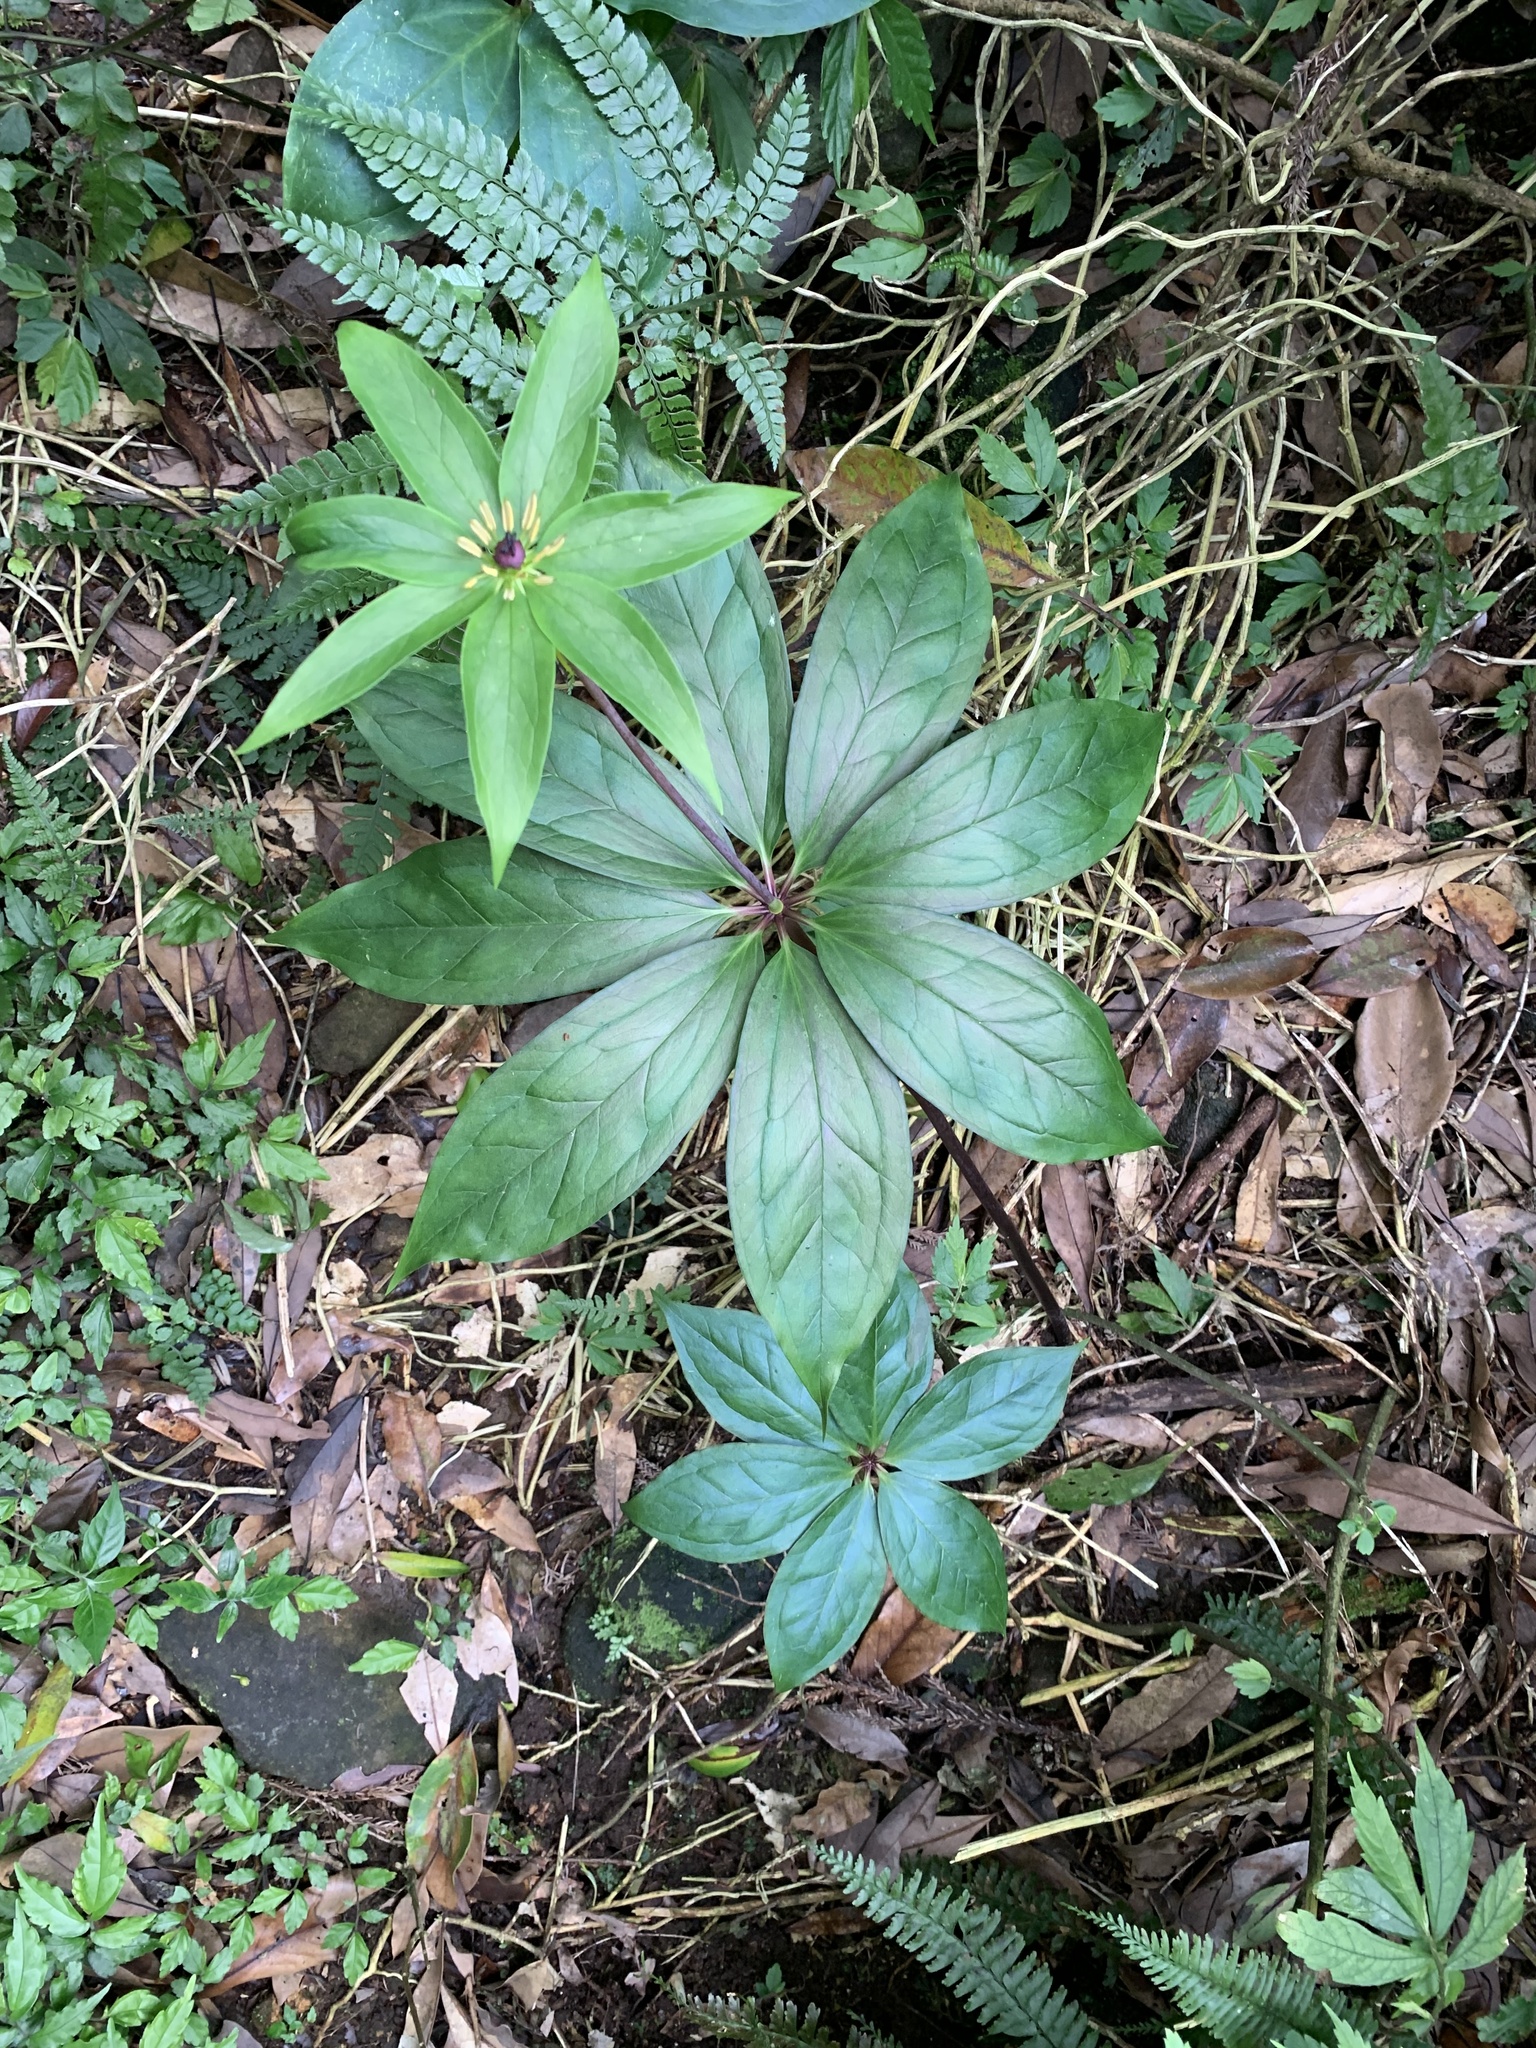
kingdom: Plantae
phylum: Tracheophyta
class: Liliopsida
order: Liliales
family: Melanthiaceae
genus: Paris
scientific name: Paris polyphylla
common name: Love apple
